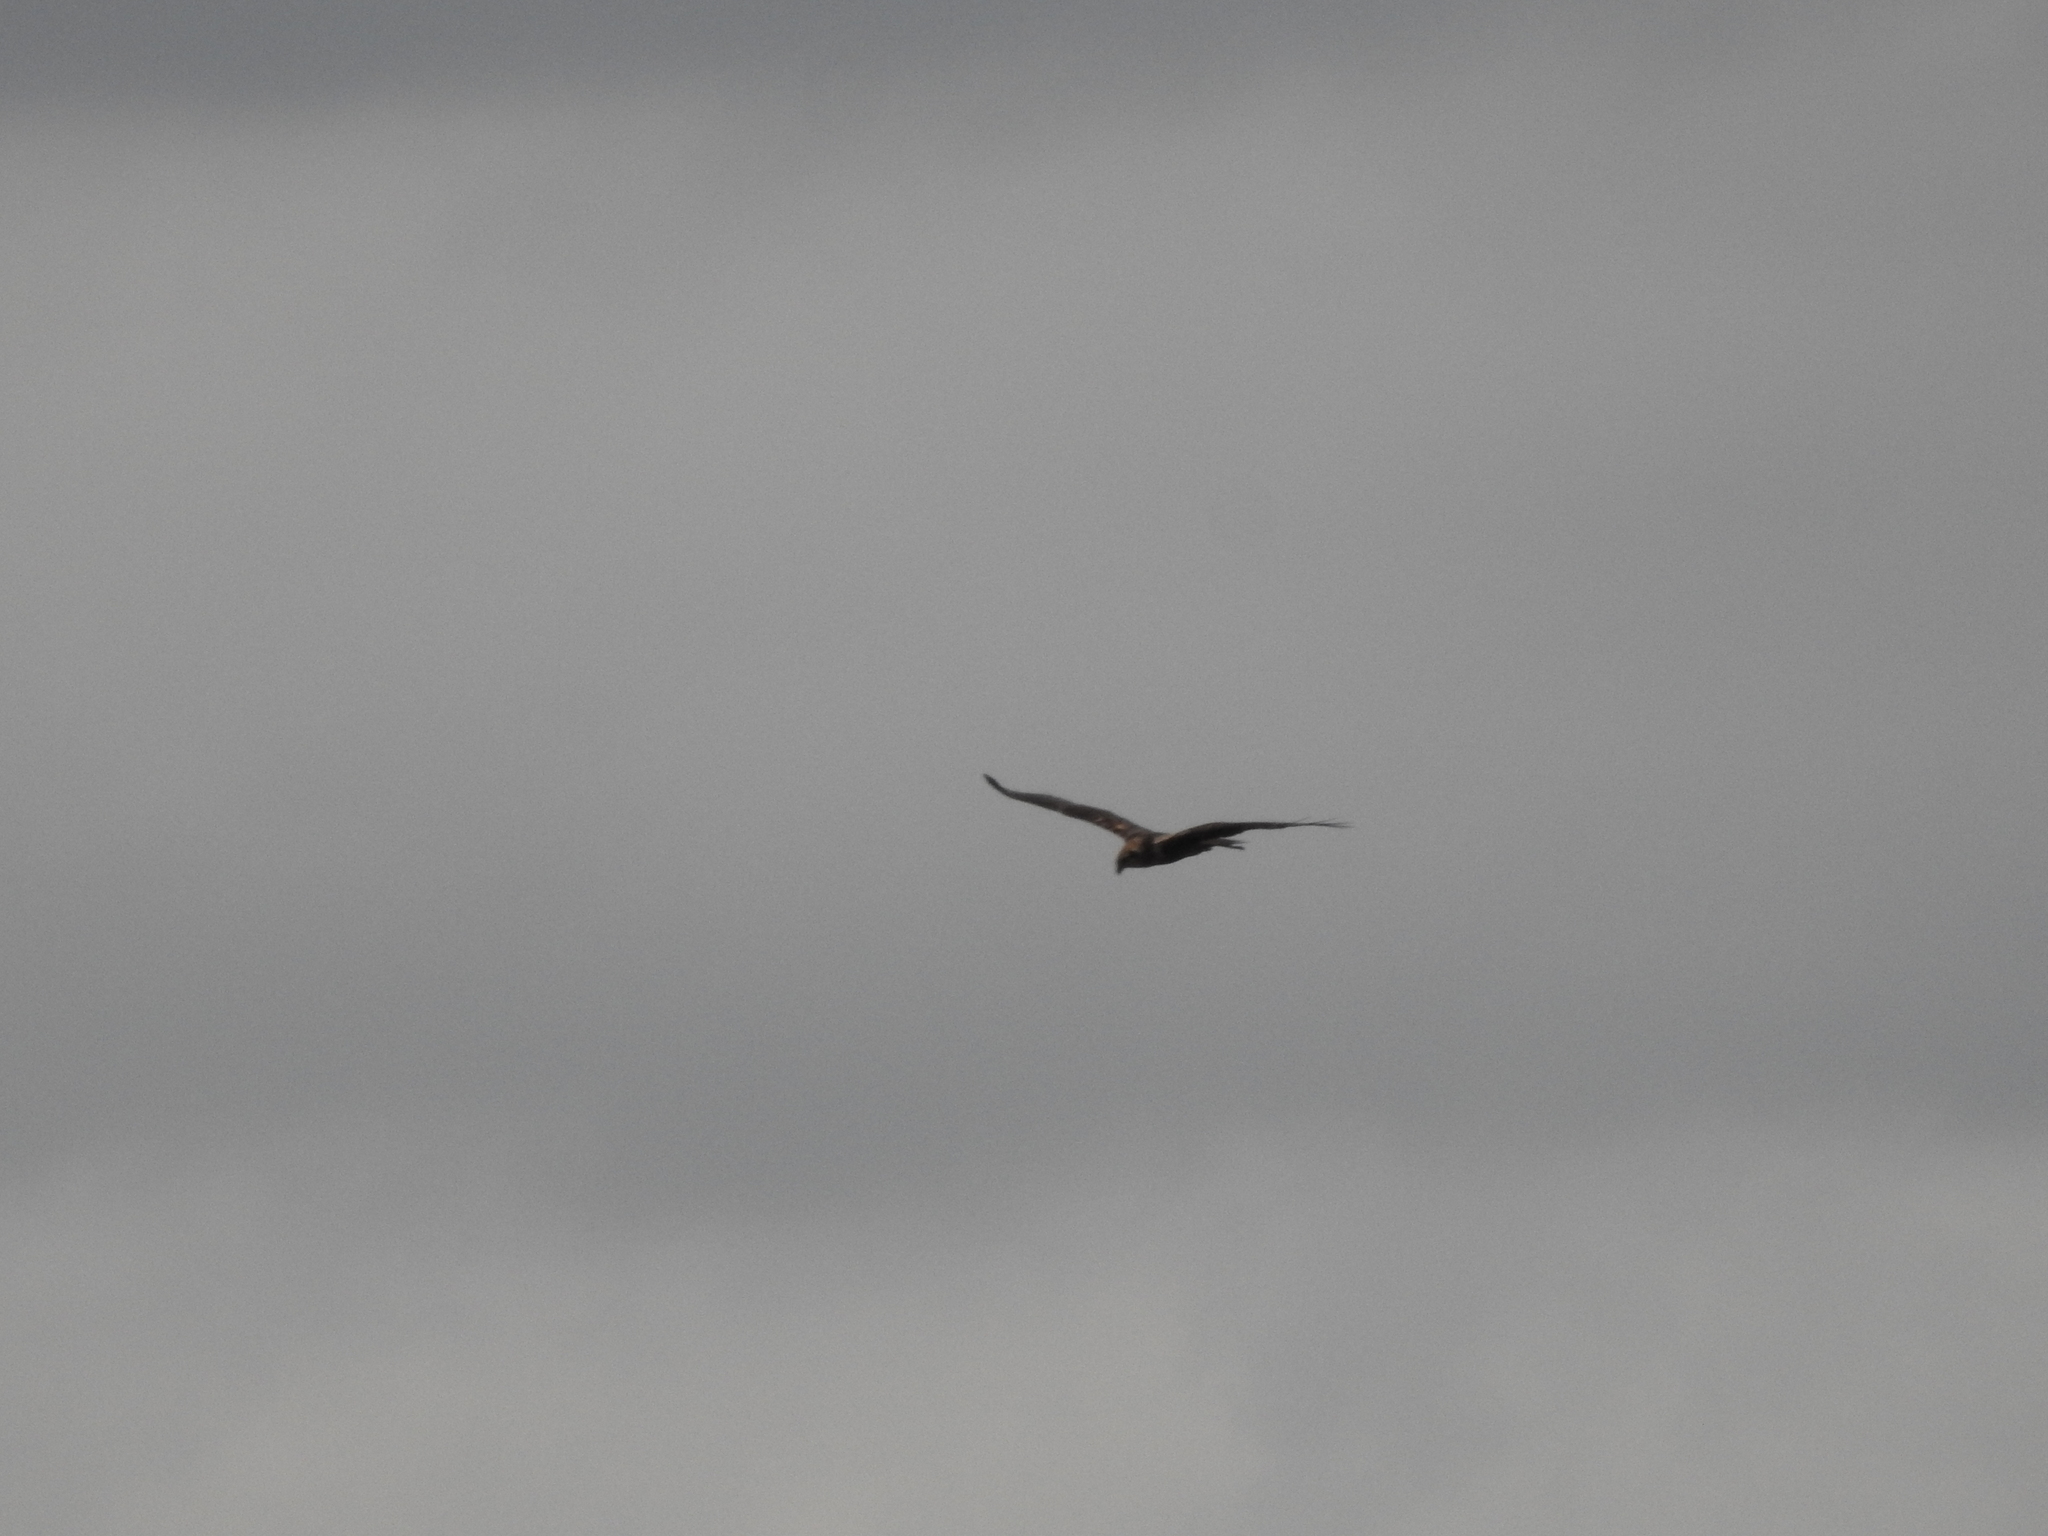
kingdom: Animalia
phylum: Chordata
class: Aves
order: Accipitriformes
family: Accipitridae
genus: Circus
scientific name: Circus aeruginosus
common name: Western marsh harrier
